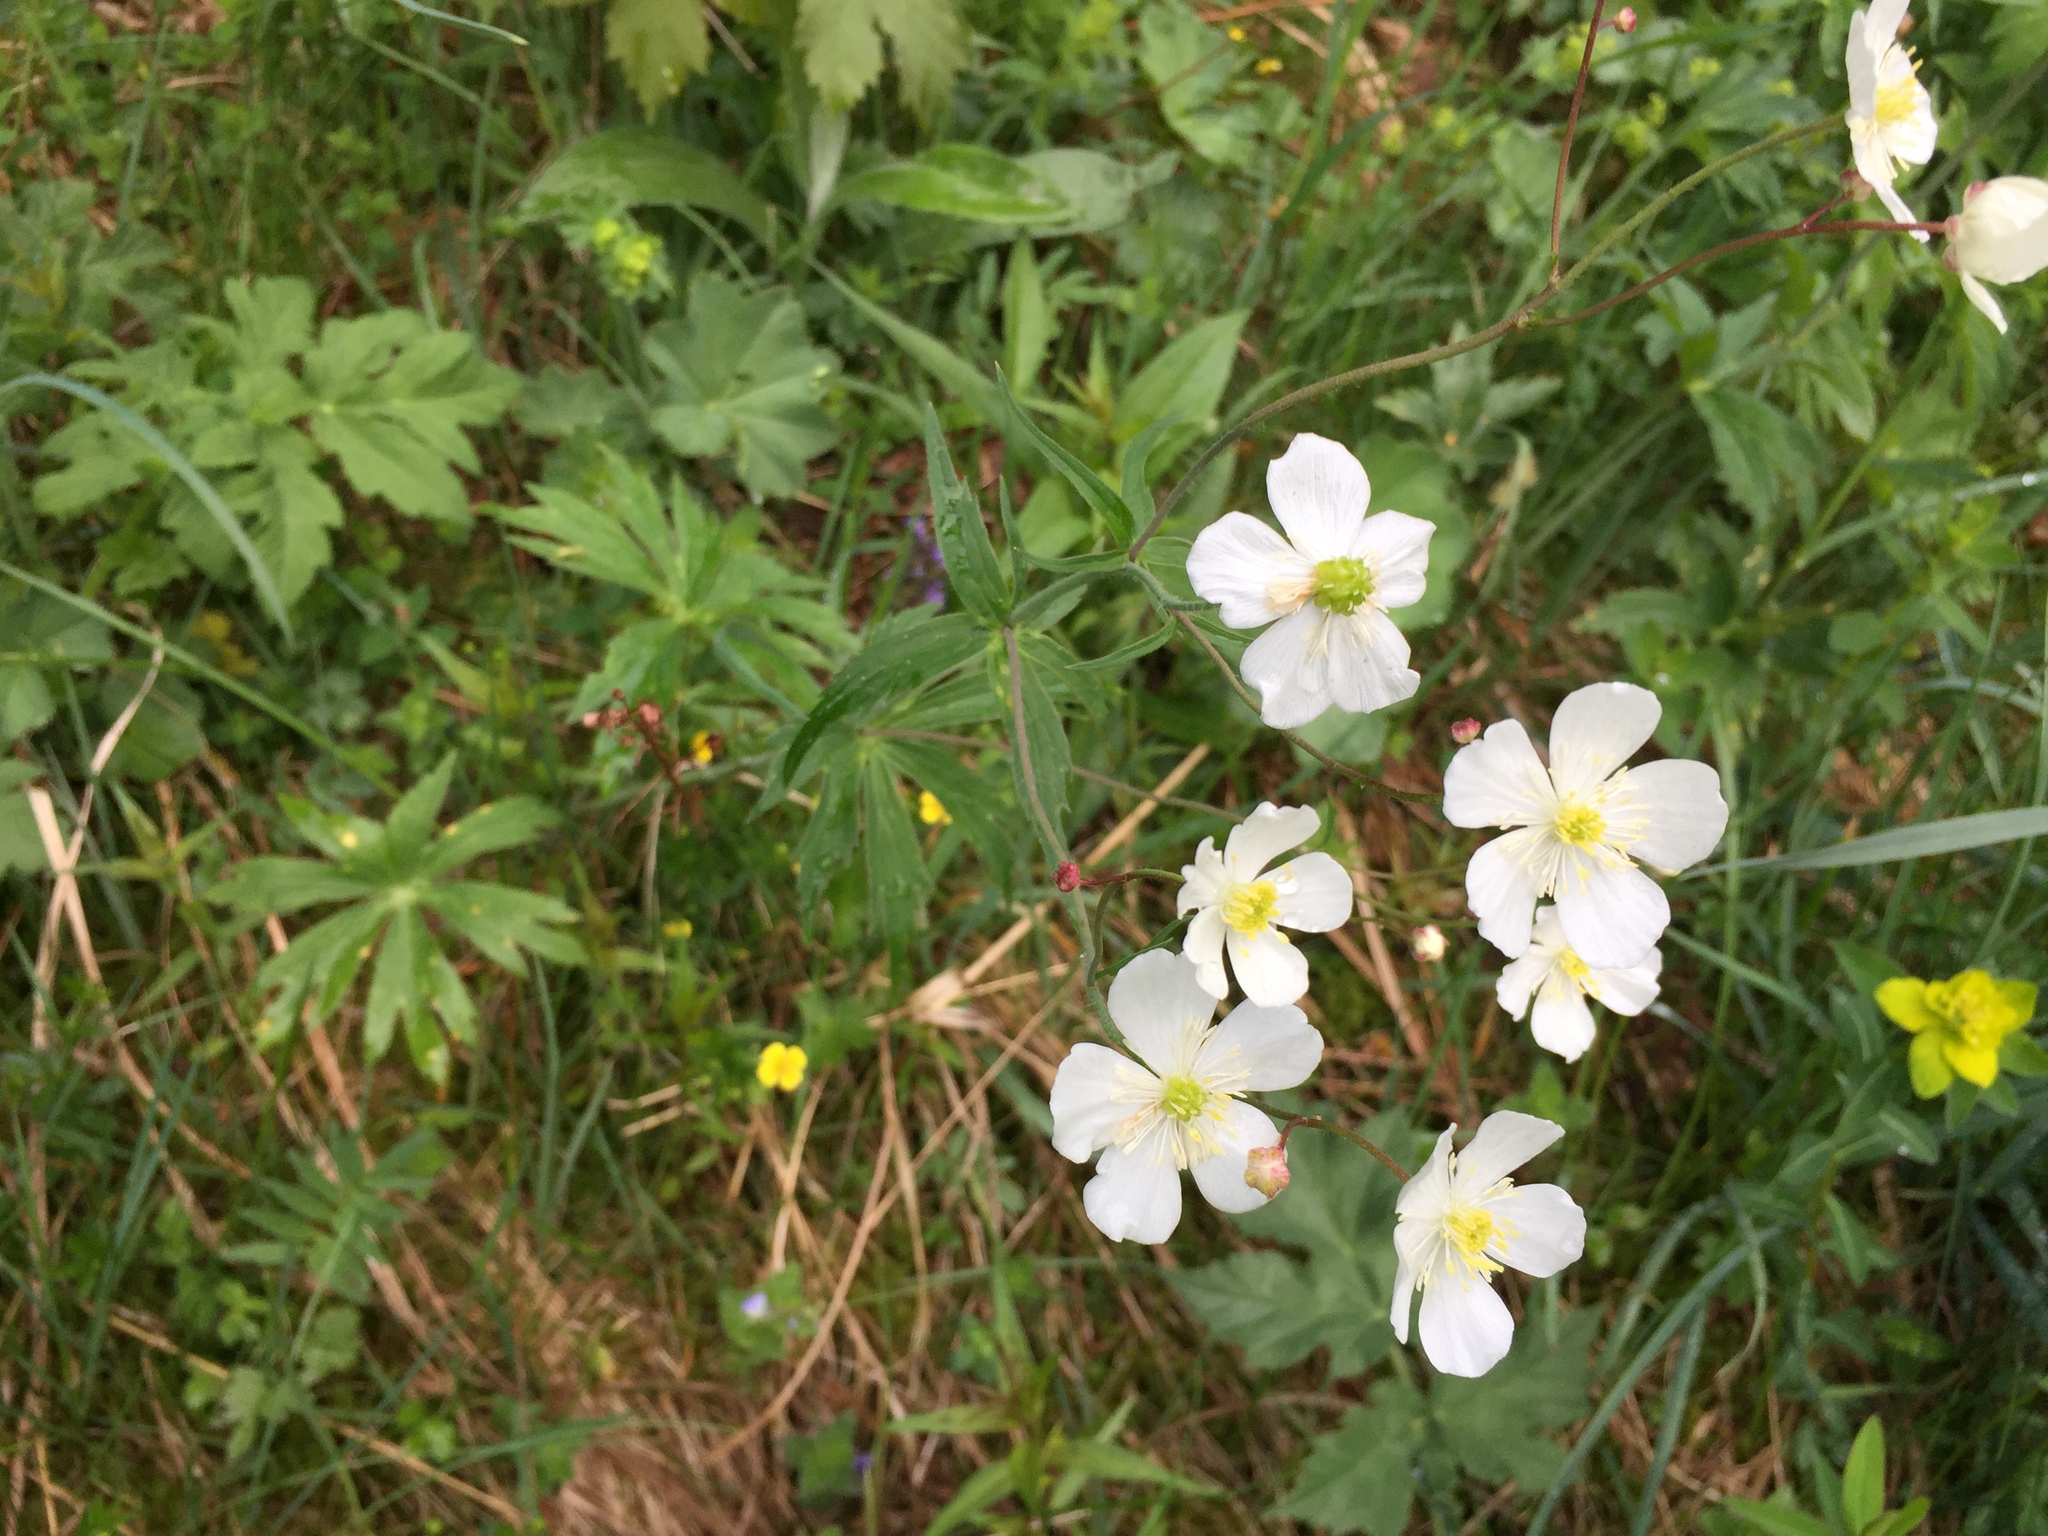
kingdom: Plantae
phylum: Tracheophyta
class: Magnoliopsida
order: Ranunculales
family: Ranunculaceae
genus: Ranunculus
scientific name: Ranunculus aconitifolius
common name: Aconite-leaved buttercup
